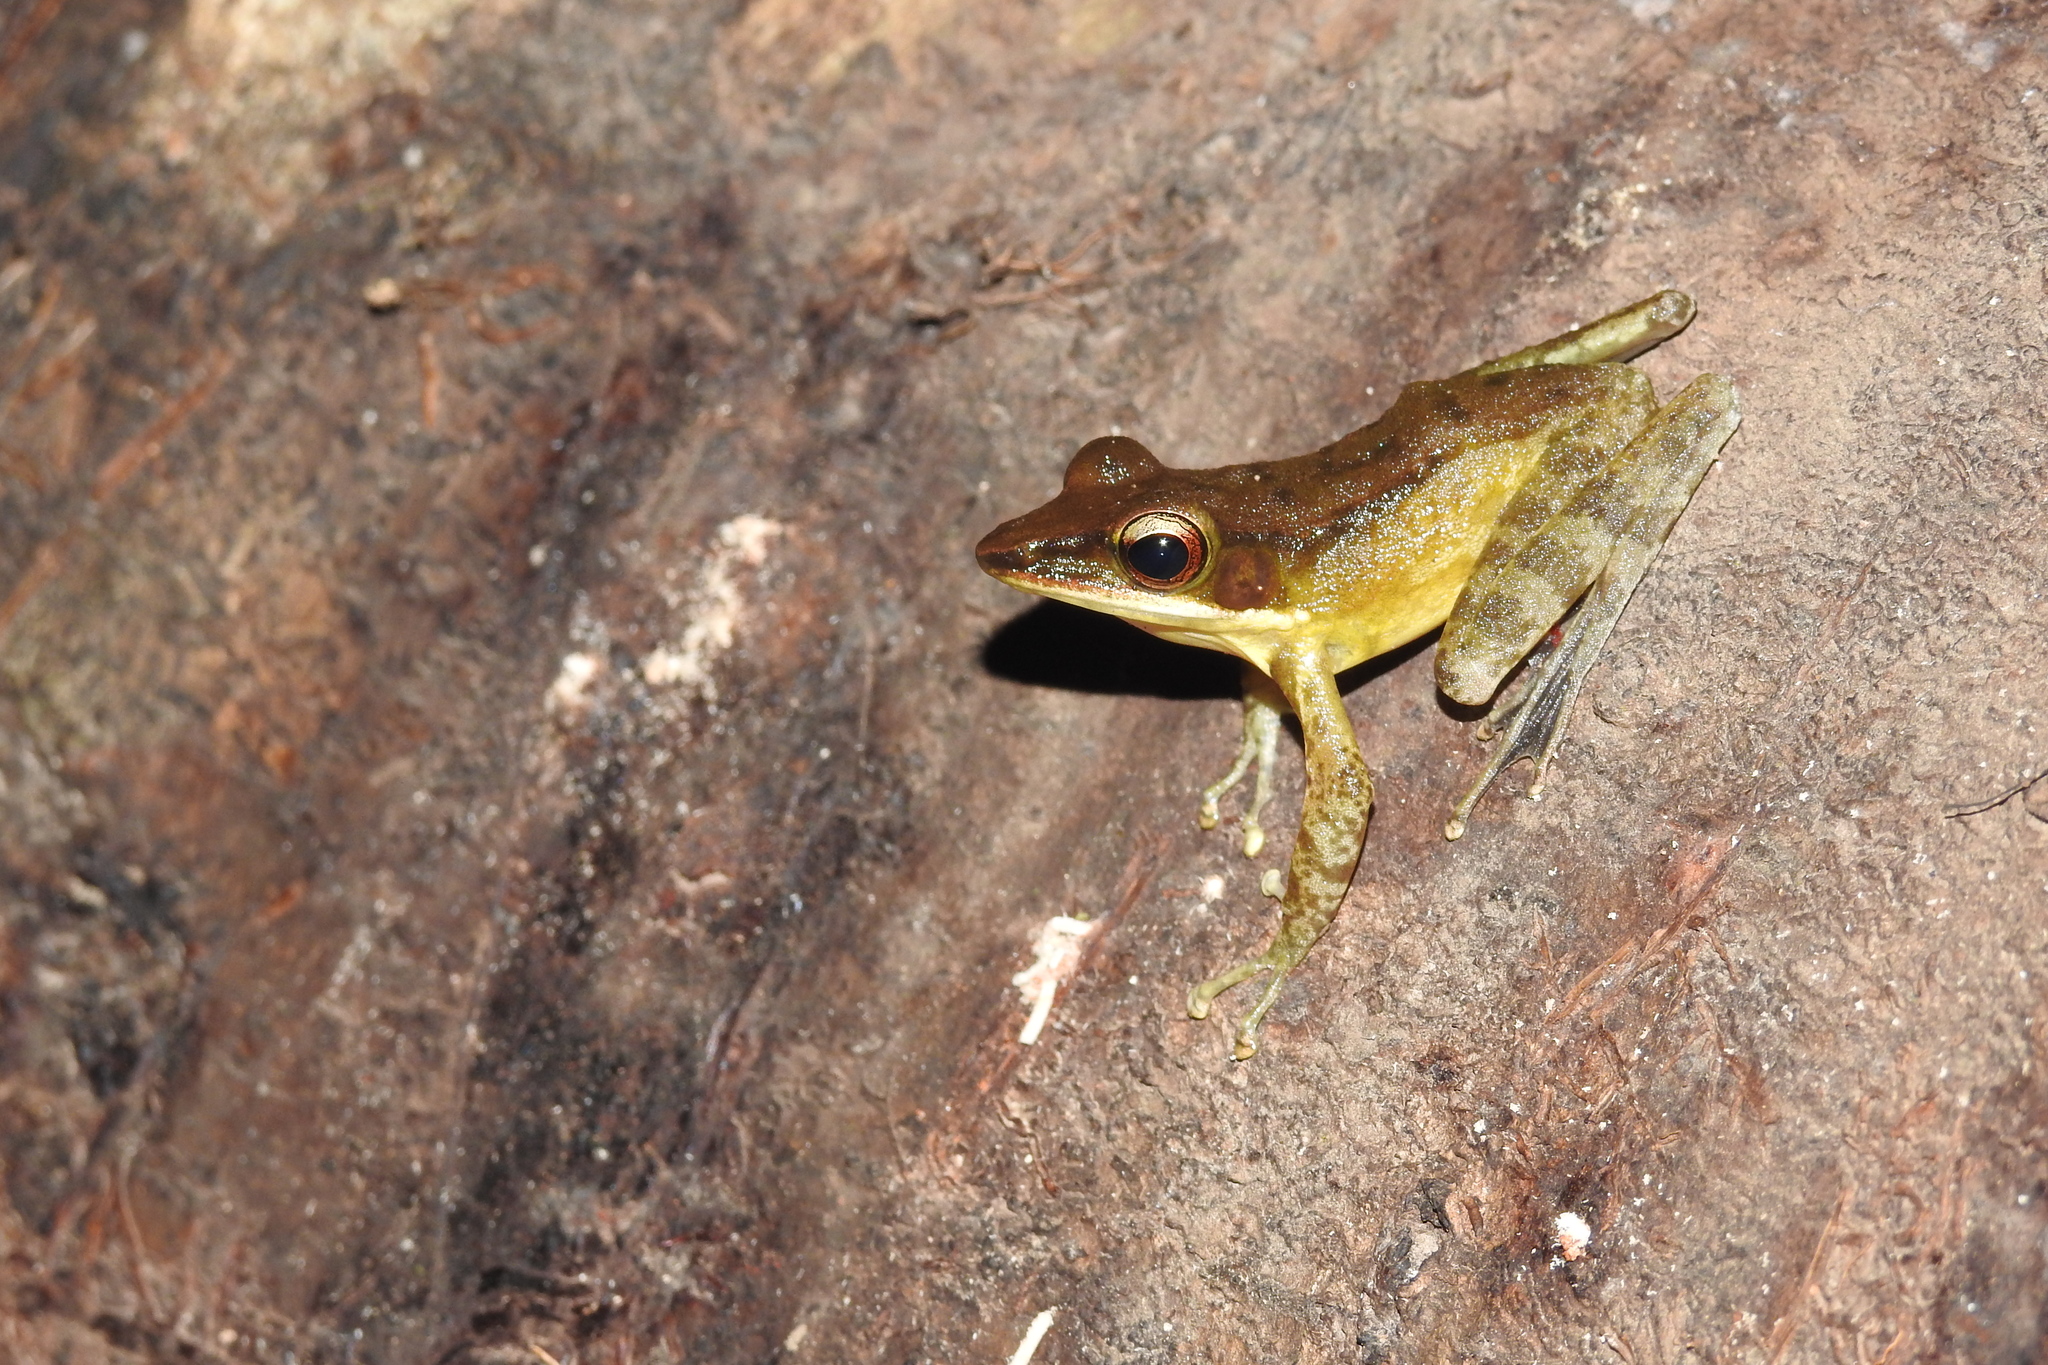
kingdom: Animalia
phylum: Chordata
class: Amphibia
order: Anura
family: Ranidae
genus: Hylarana
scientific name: Hylarana celebensis
